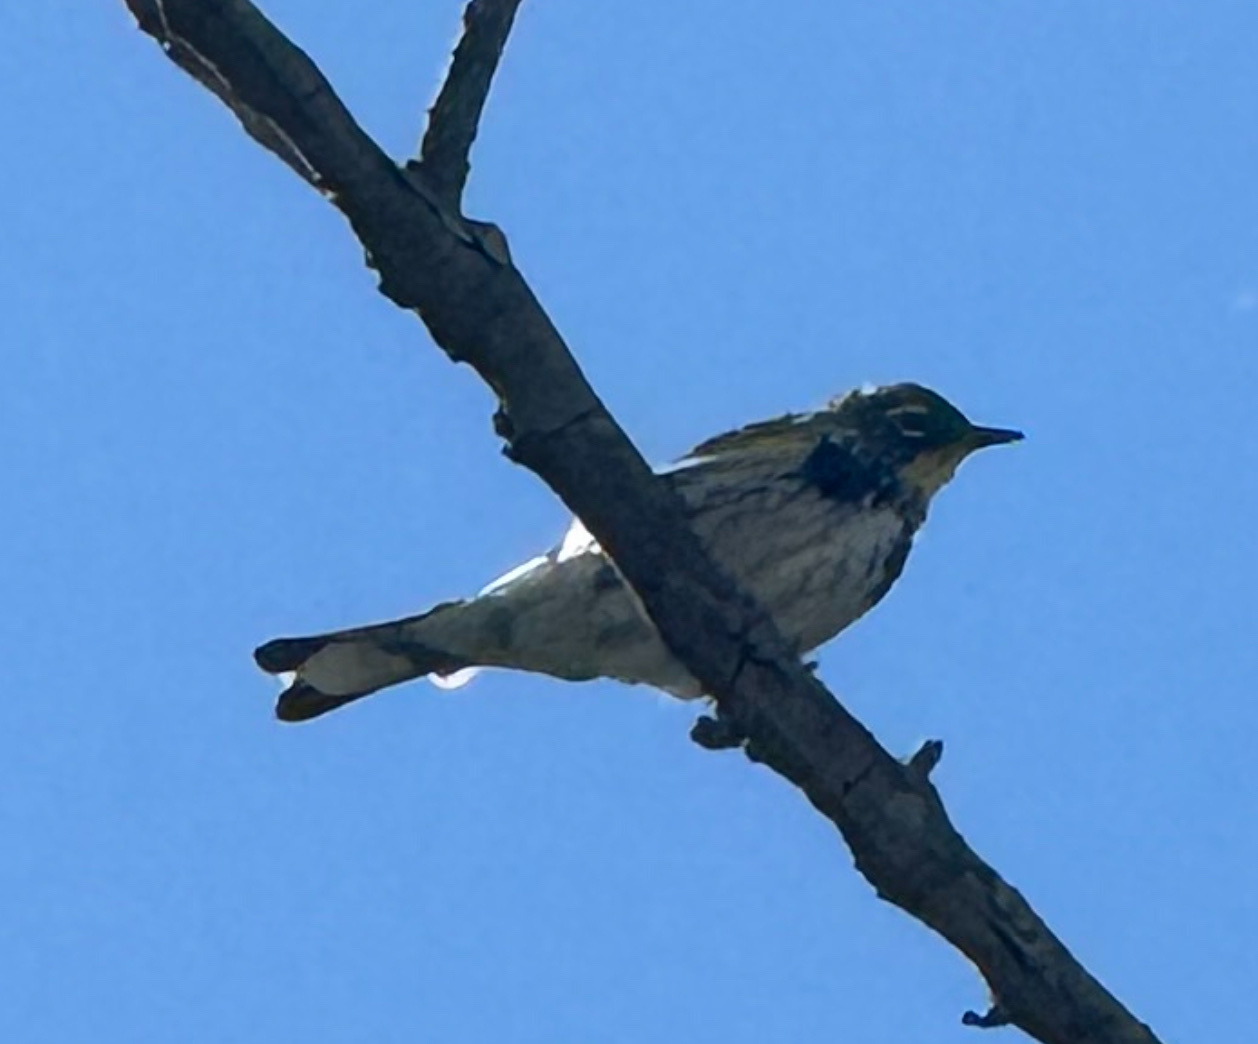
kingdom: Animalia
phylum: Chordata
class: Aves
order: Passeriformes
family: Parulidae
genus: Setophaga
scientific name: Setophaga coronata
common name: Myrtle warbler
